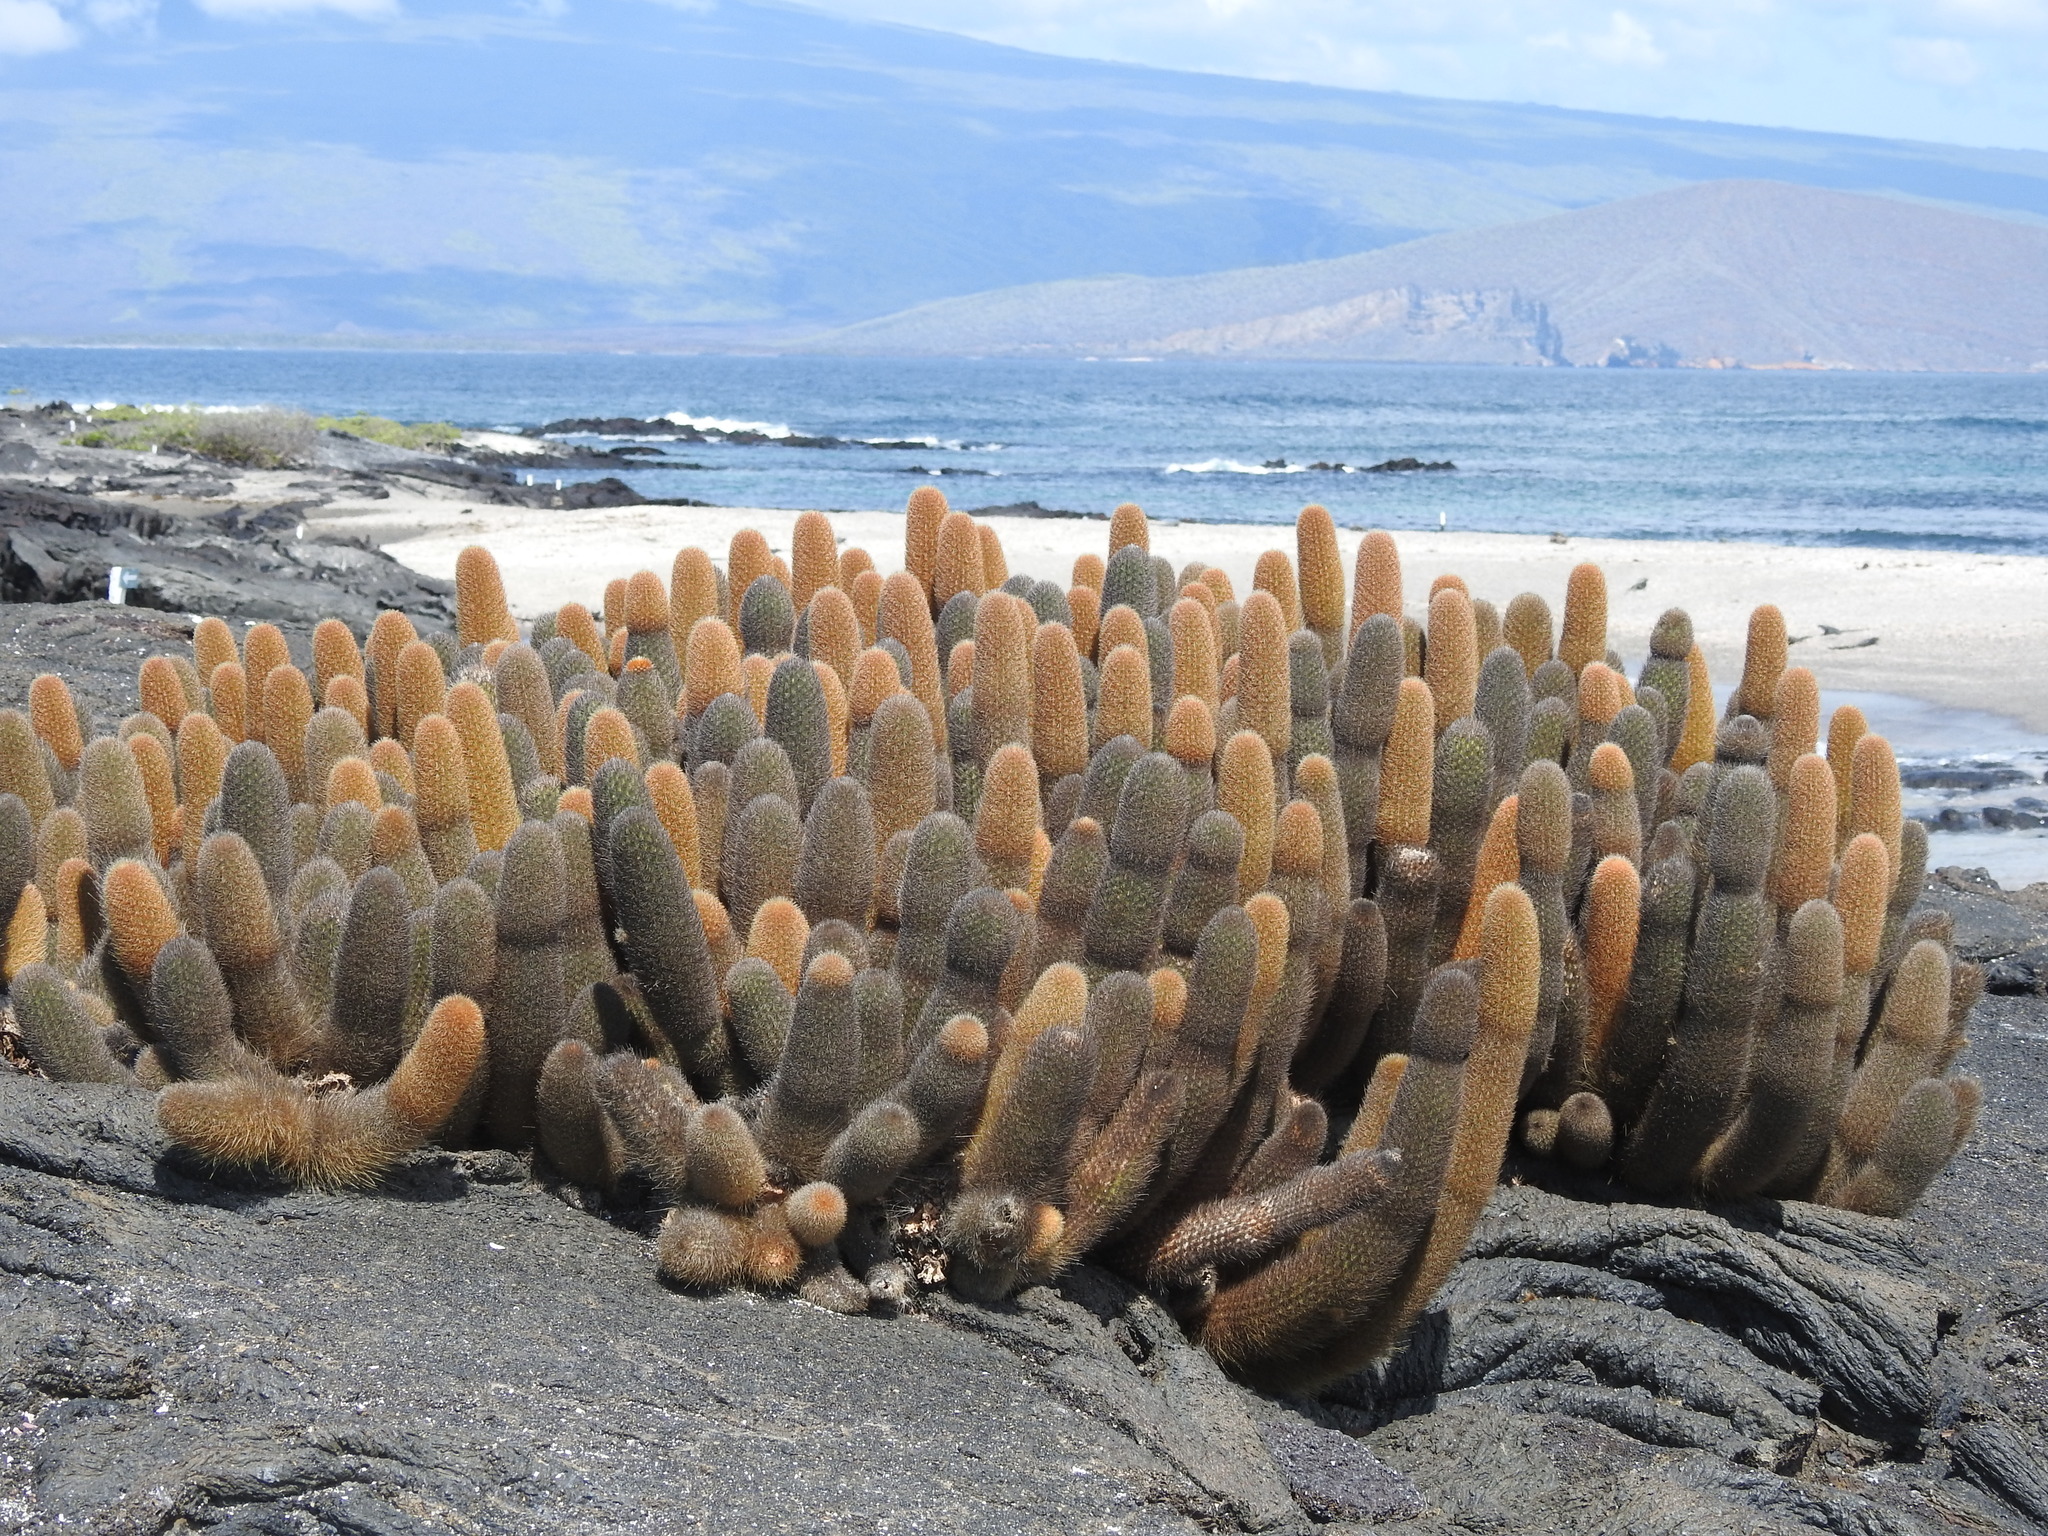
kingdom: Plantae
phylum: Tracheophyta
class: Magnoliopsida
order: Caryophyllales
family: Cactaceae
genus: Brachycereus
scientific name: Brachycereus nesioticus
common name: Lava cactus
